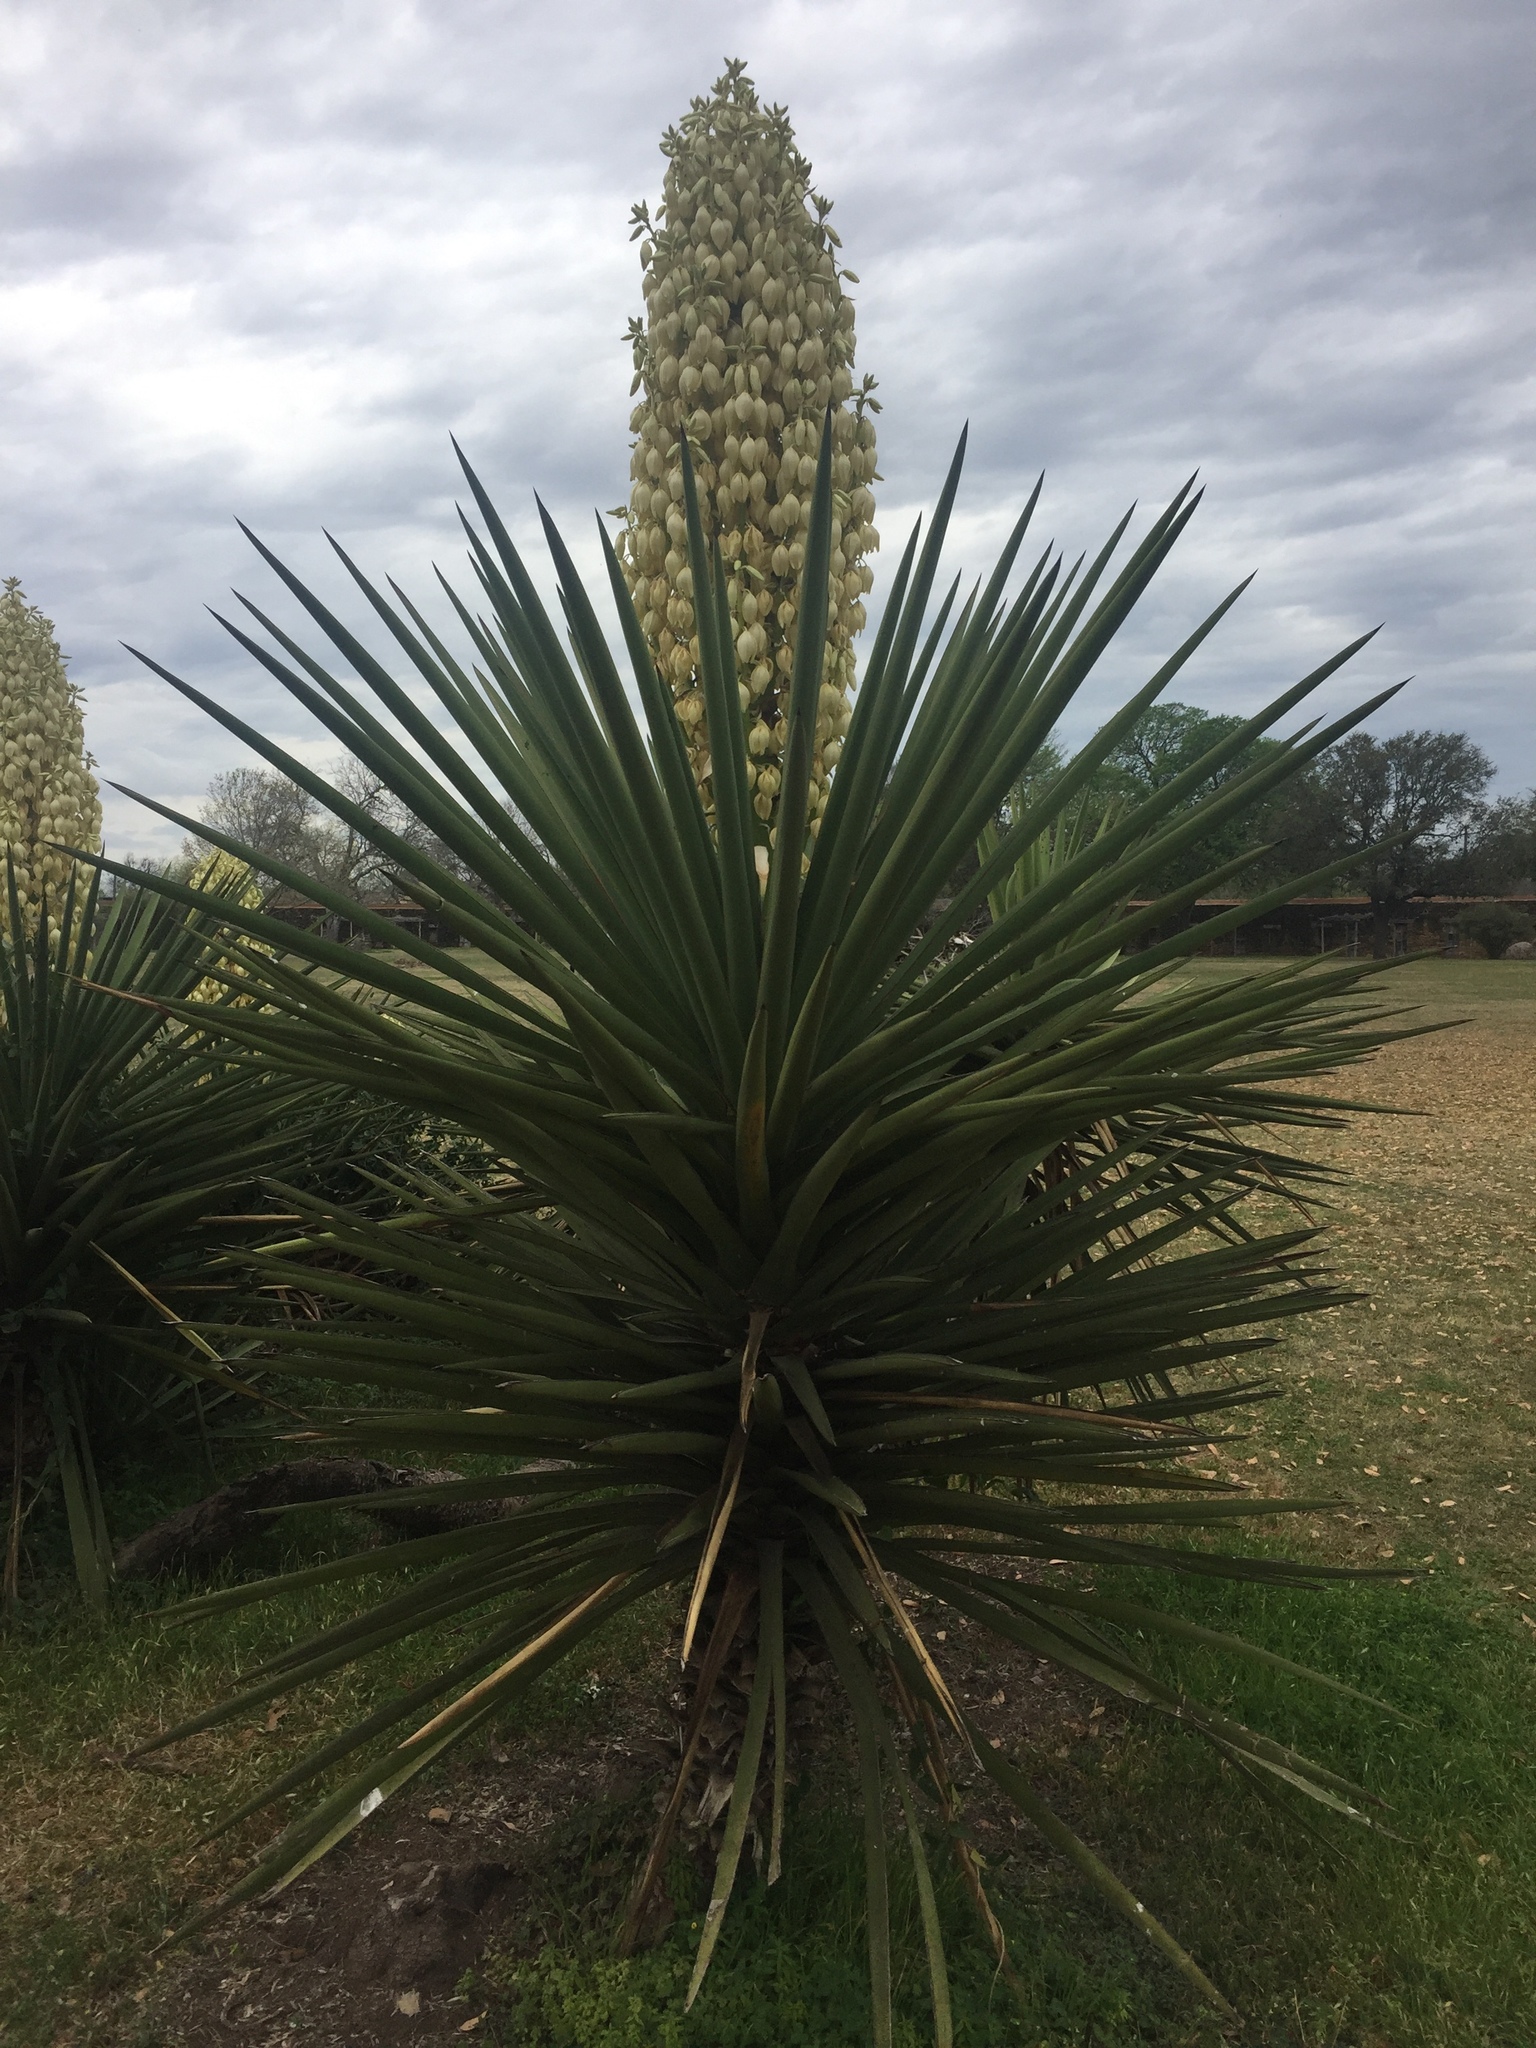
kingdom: Plantae
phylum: Tracheophyta
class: Liliopsida
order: Asparagales
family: Asparagaceae
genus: Yucca
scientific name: Yucca treculiana
